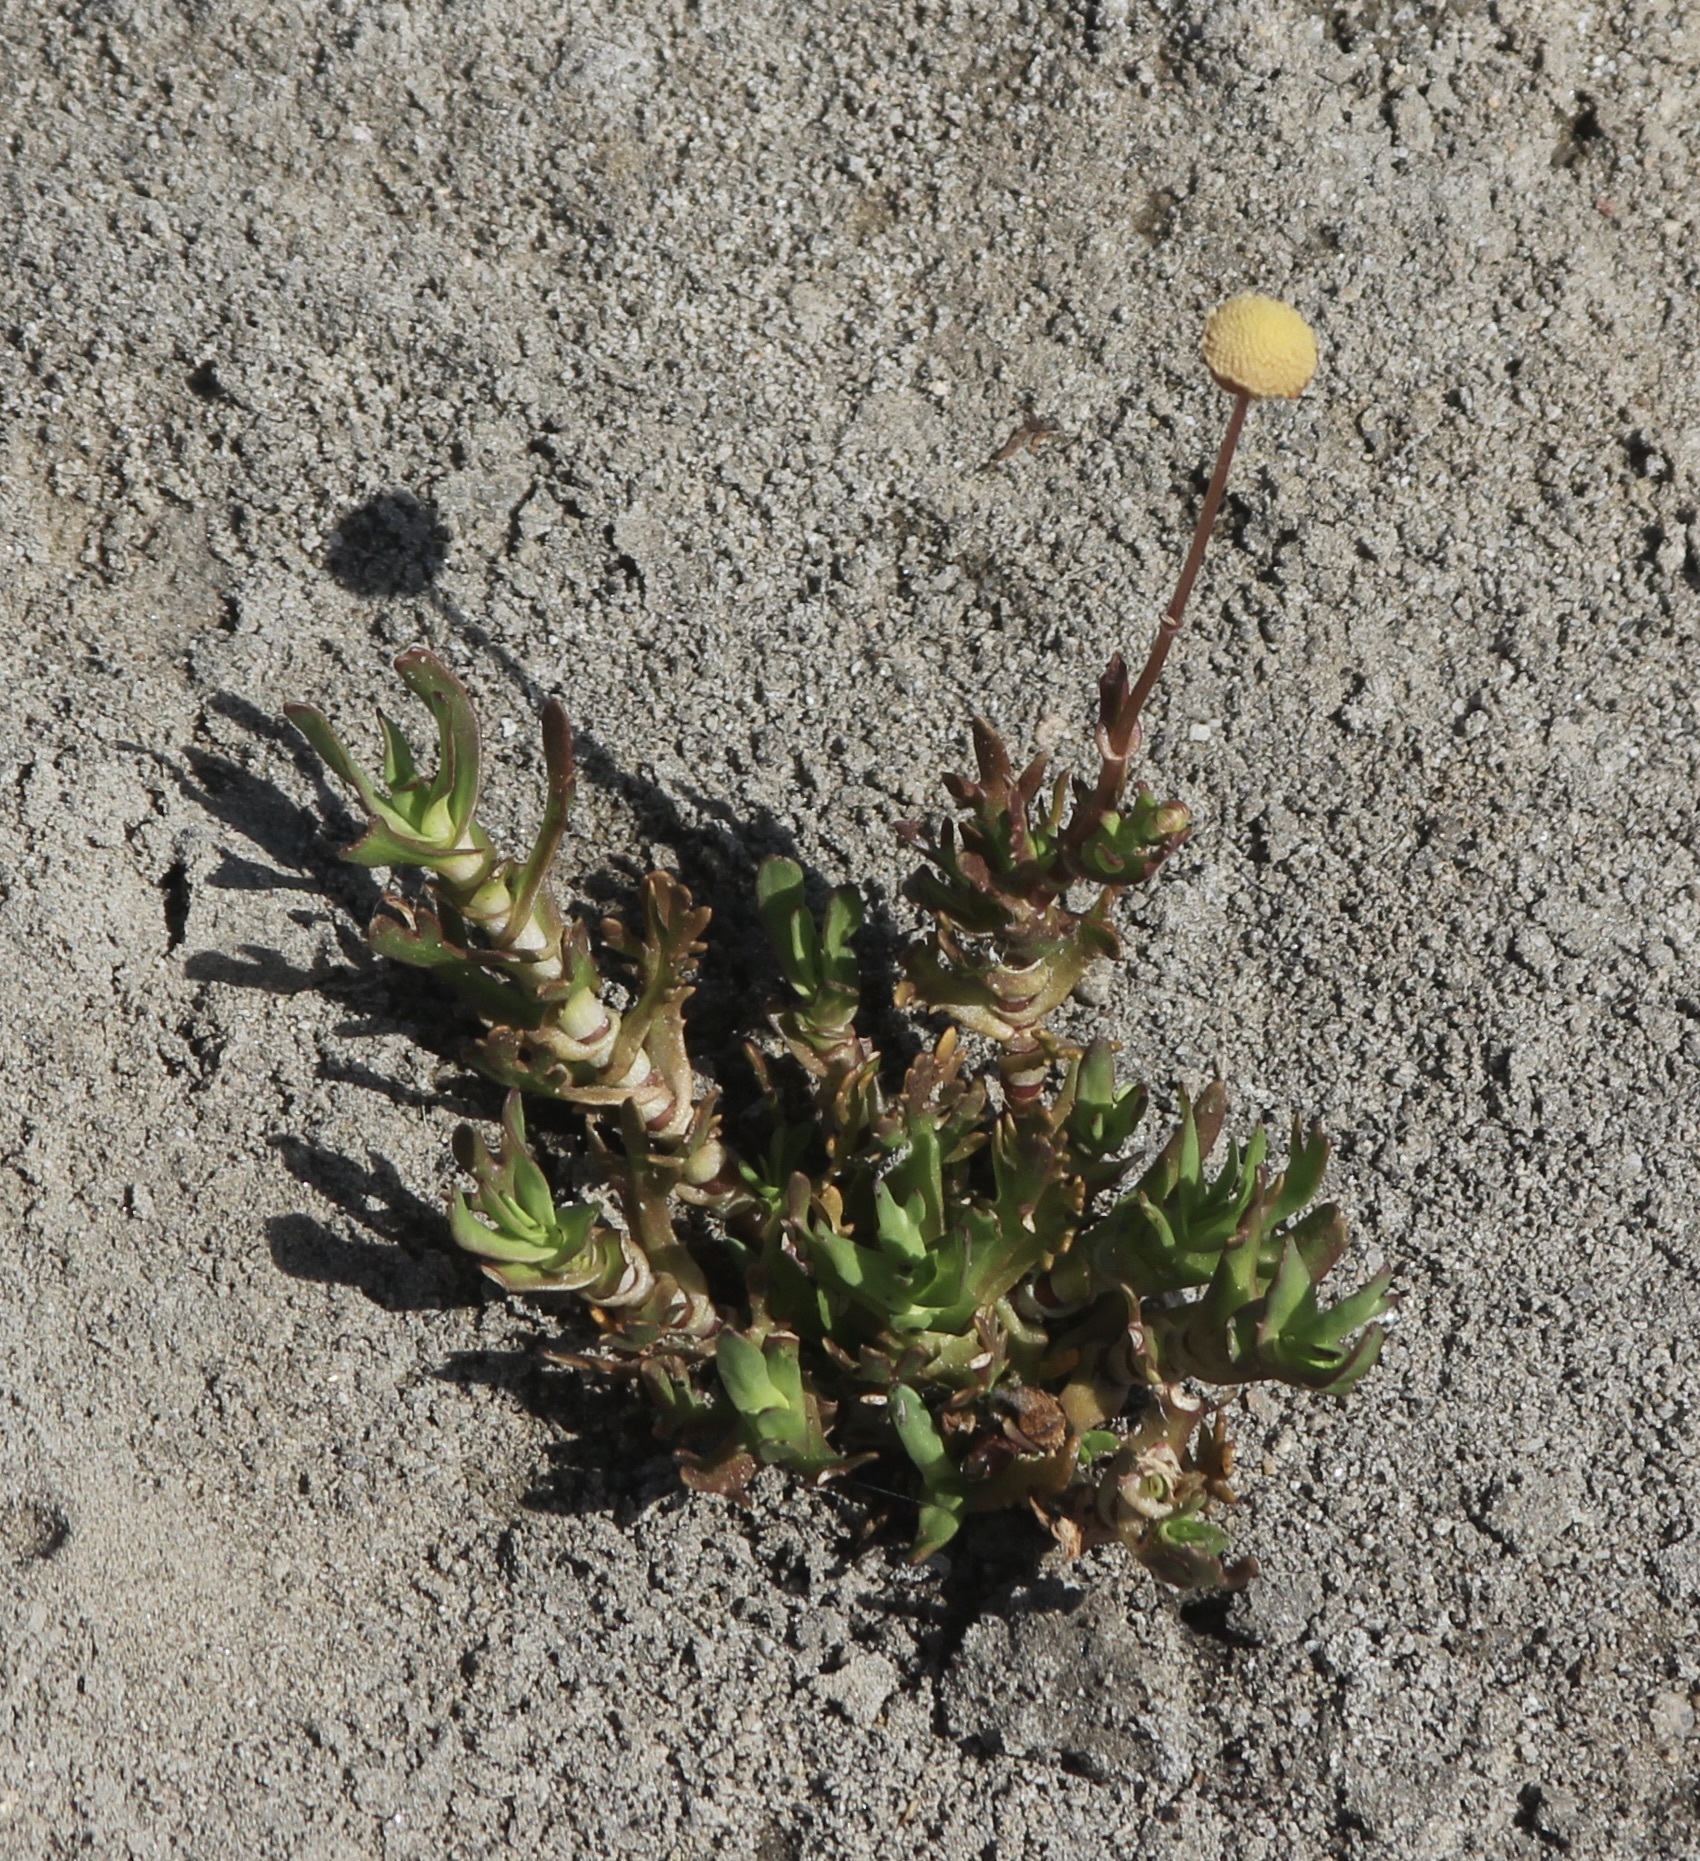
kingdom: Plantae
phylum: Tracheophyta
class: Magnoliopsida
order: Asterales
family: Asteraceae
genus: Cotula
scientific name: Cotula coronopifolia
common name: Buttonweed
